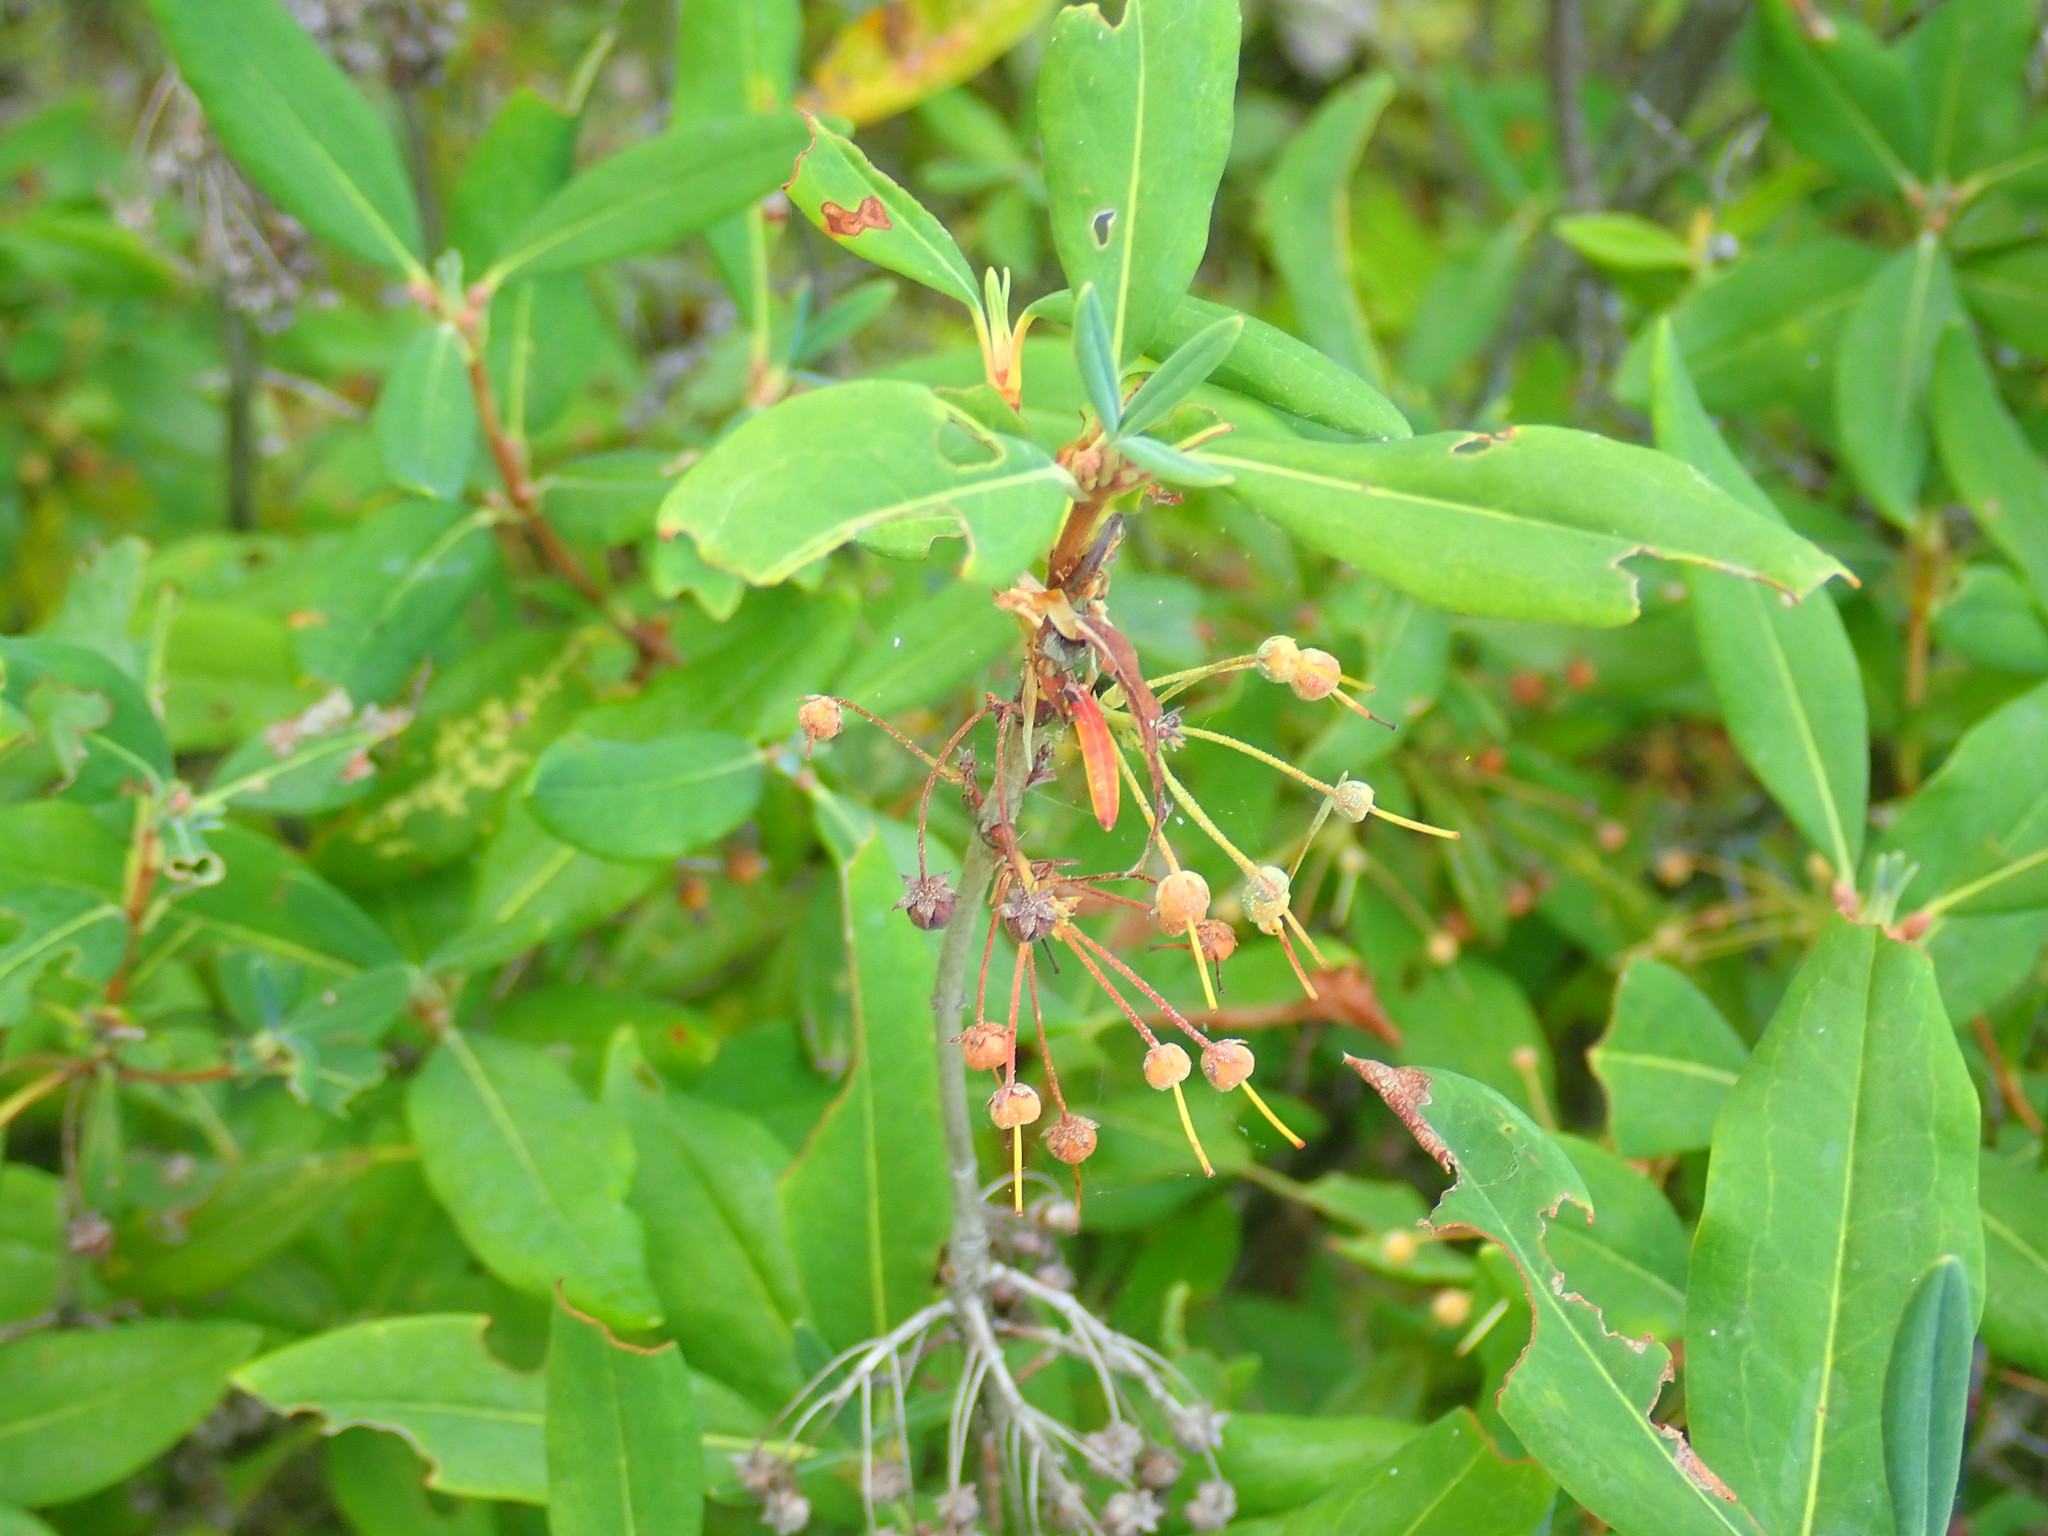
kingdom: Plantae
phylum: Tracheophyta
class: Magnoliopsida
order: Ericales
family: Ericaceae
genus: Kalmia
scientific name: Kalmia angustifolia
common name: Sheep-laurel
